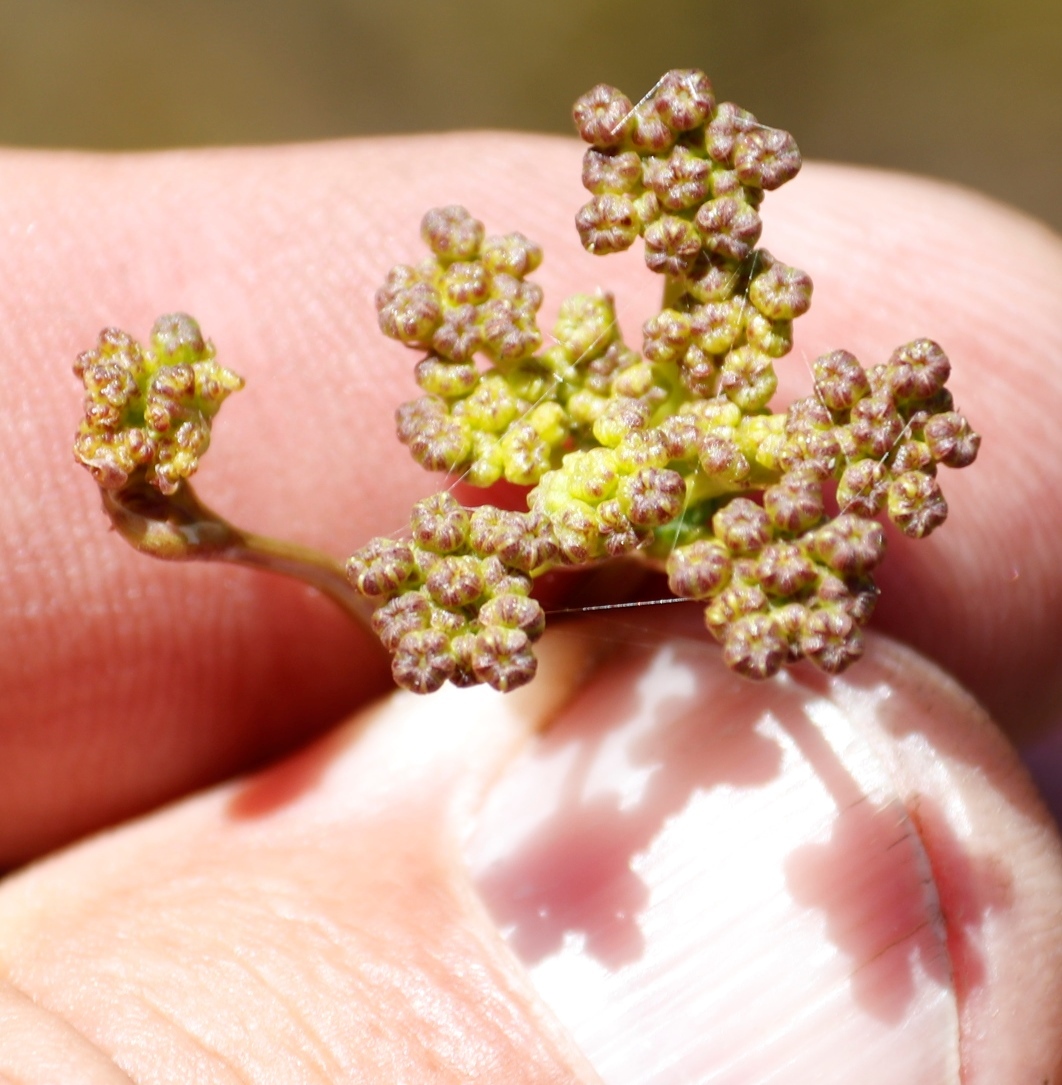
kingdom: Plantae
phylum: Tracheophyta
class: Magnoliopsida
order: Apiales
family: Apiaceae
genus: Nanobubon
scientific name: Nanobubon capillaceum
